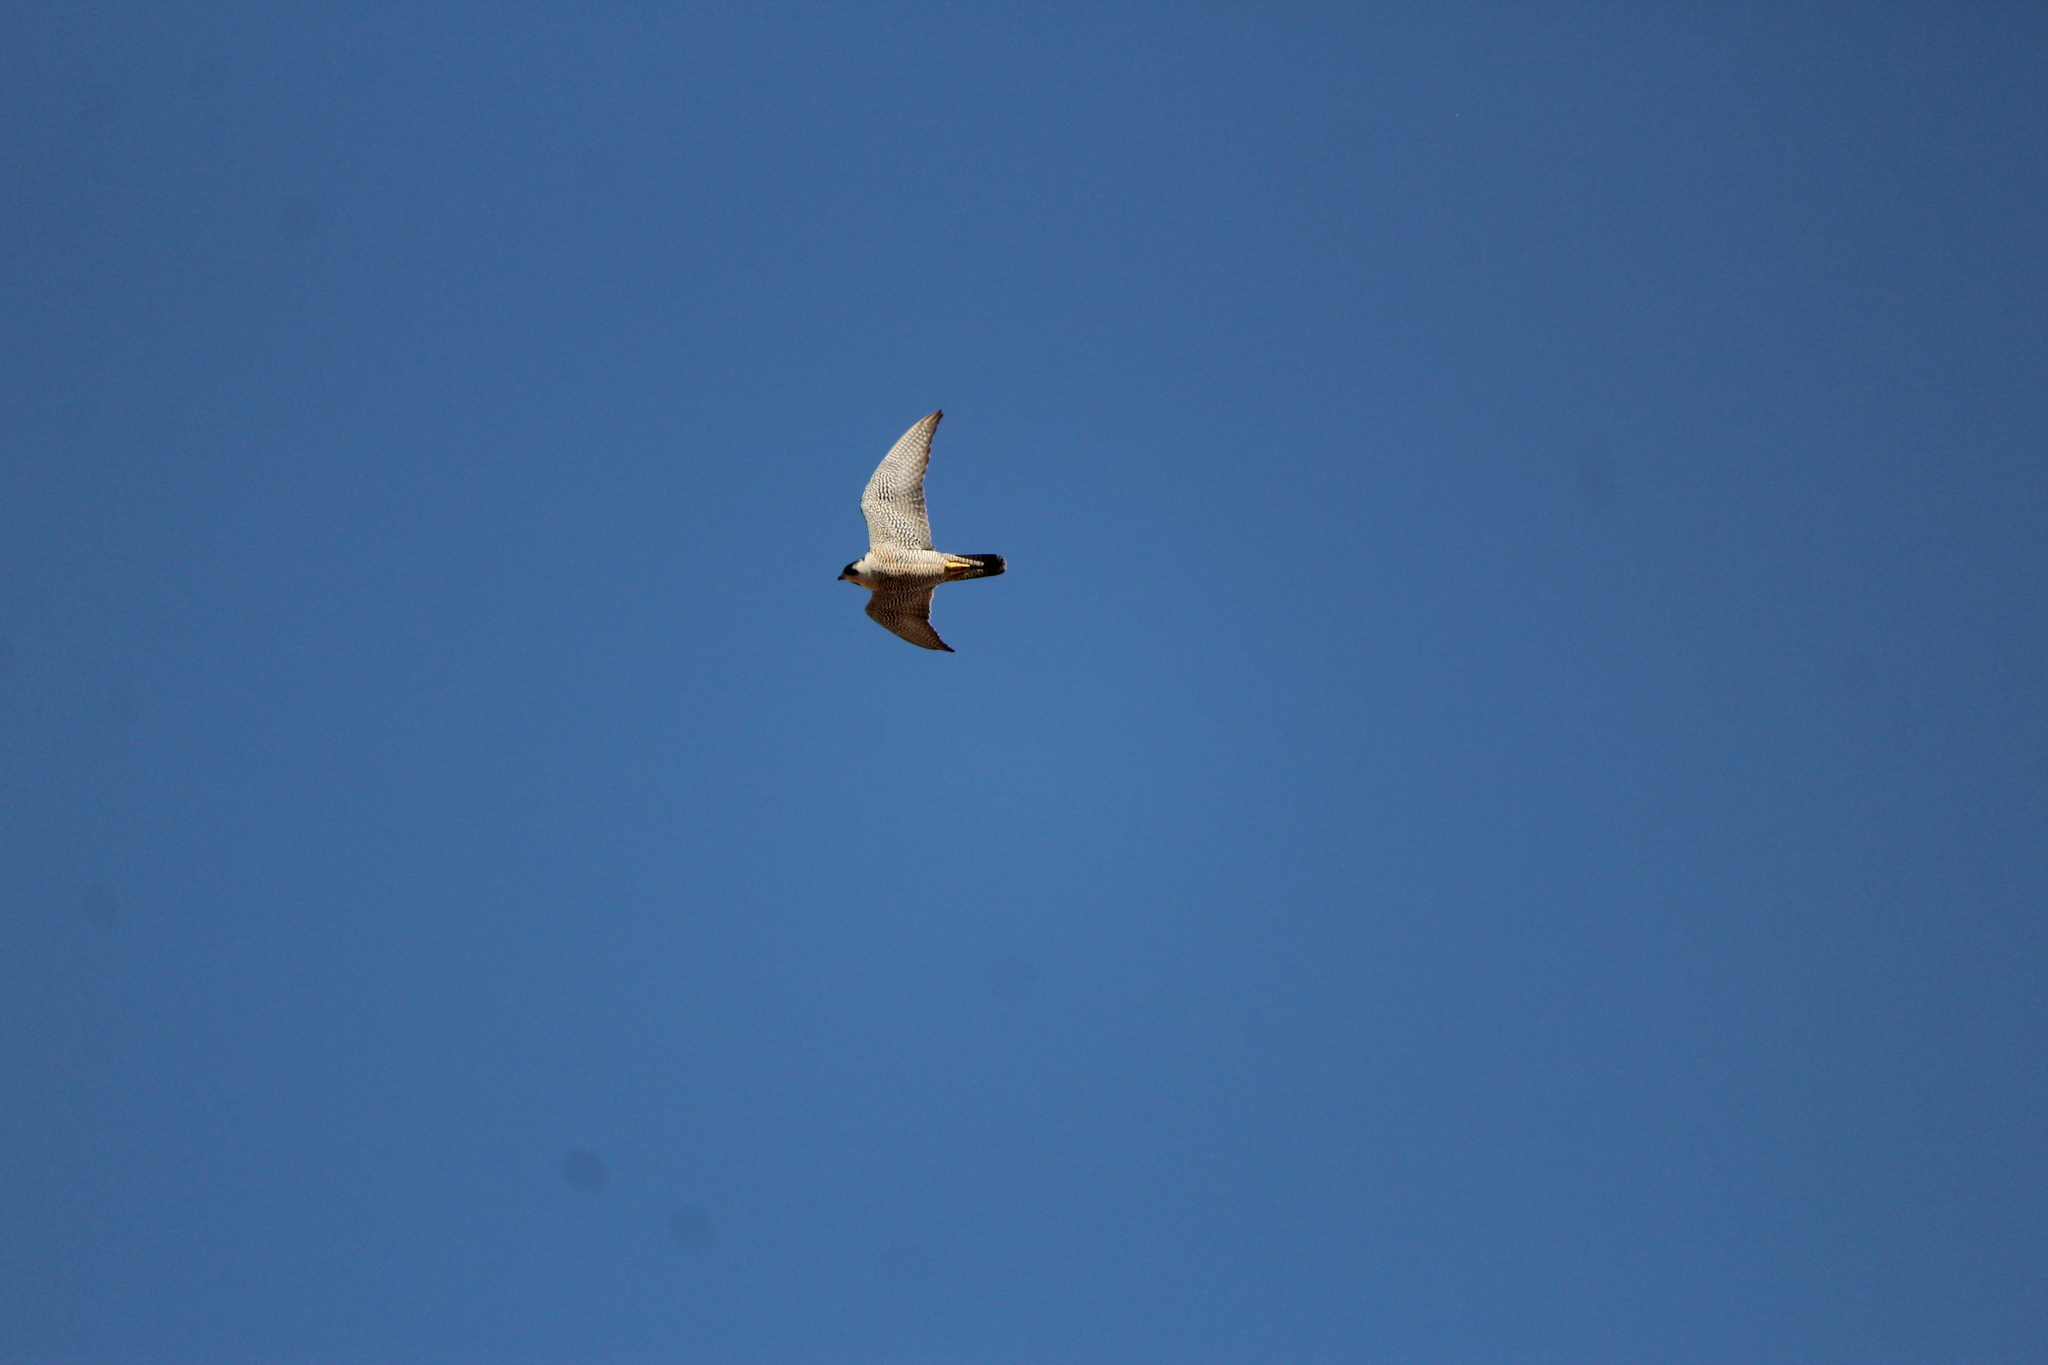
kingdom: Animalia
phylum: Chordata
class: Aves
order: Falconiformes
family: Falconidae
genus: Falco
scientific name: Falco peregrinus
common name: Peregrine falcon
